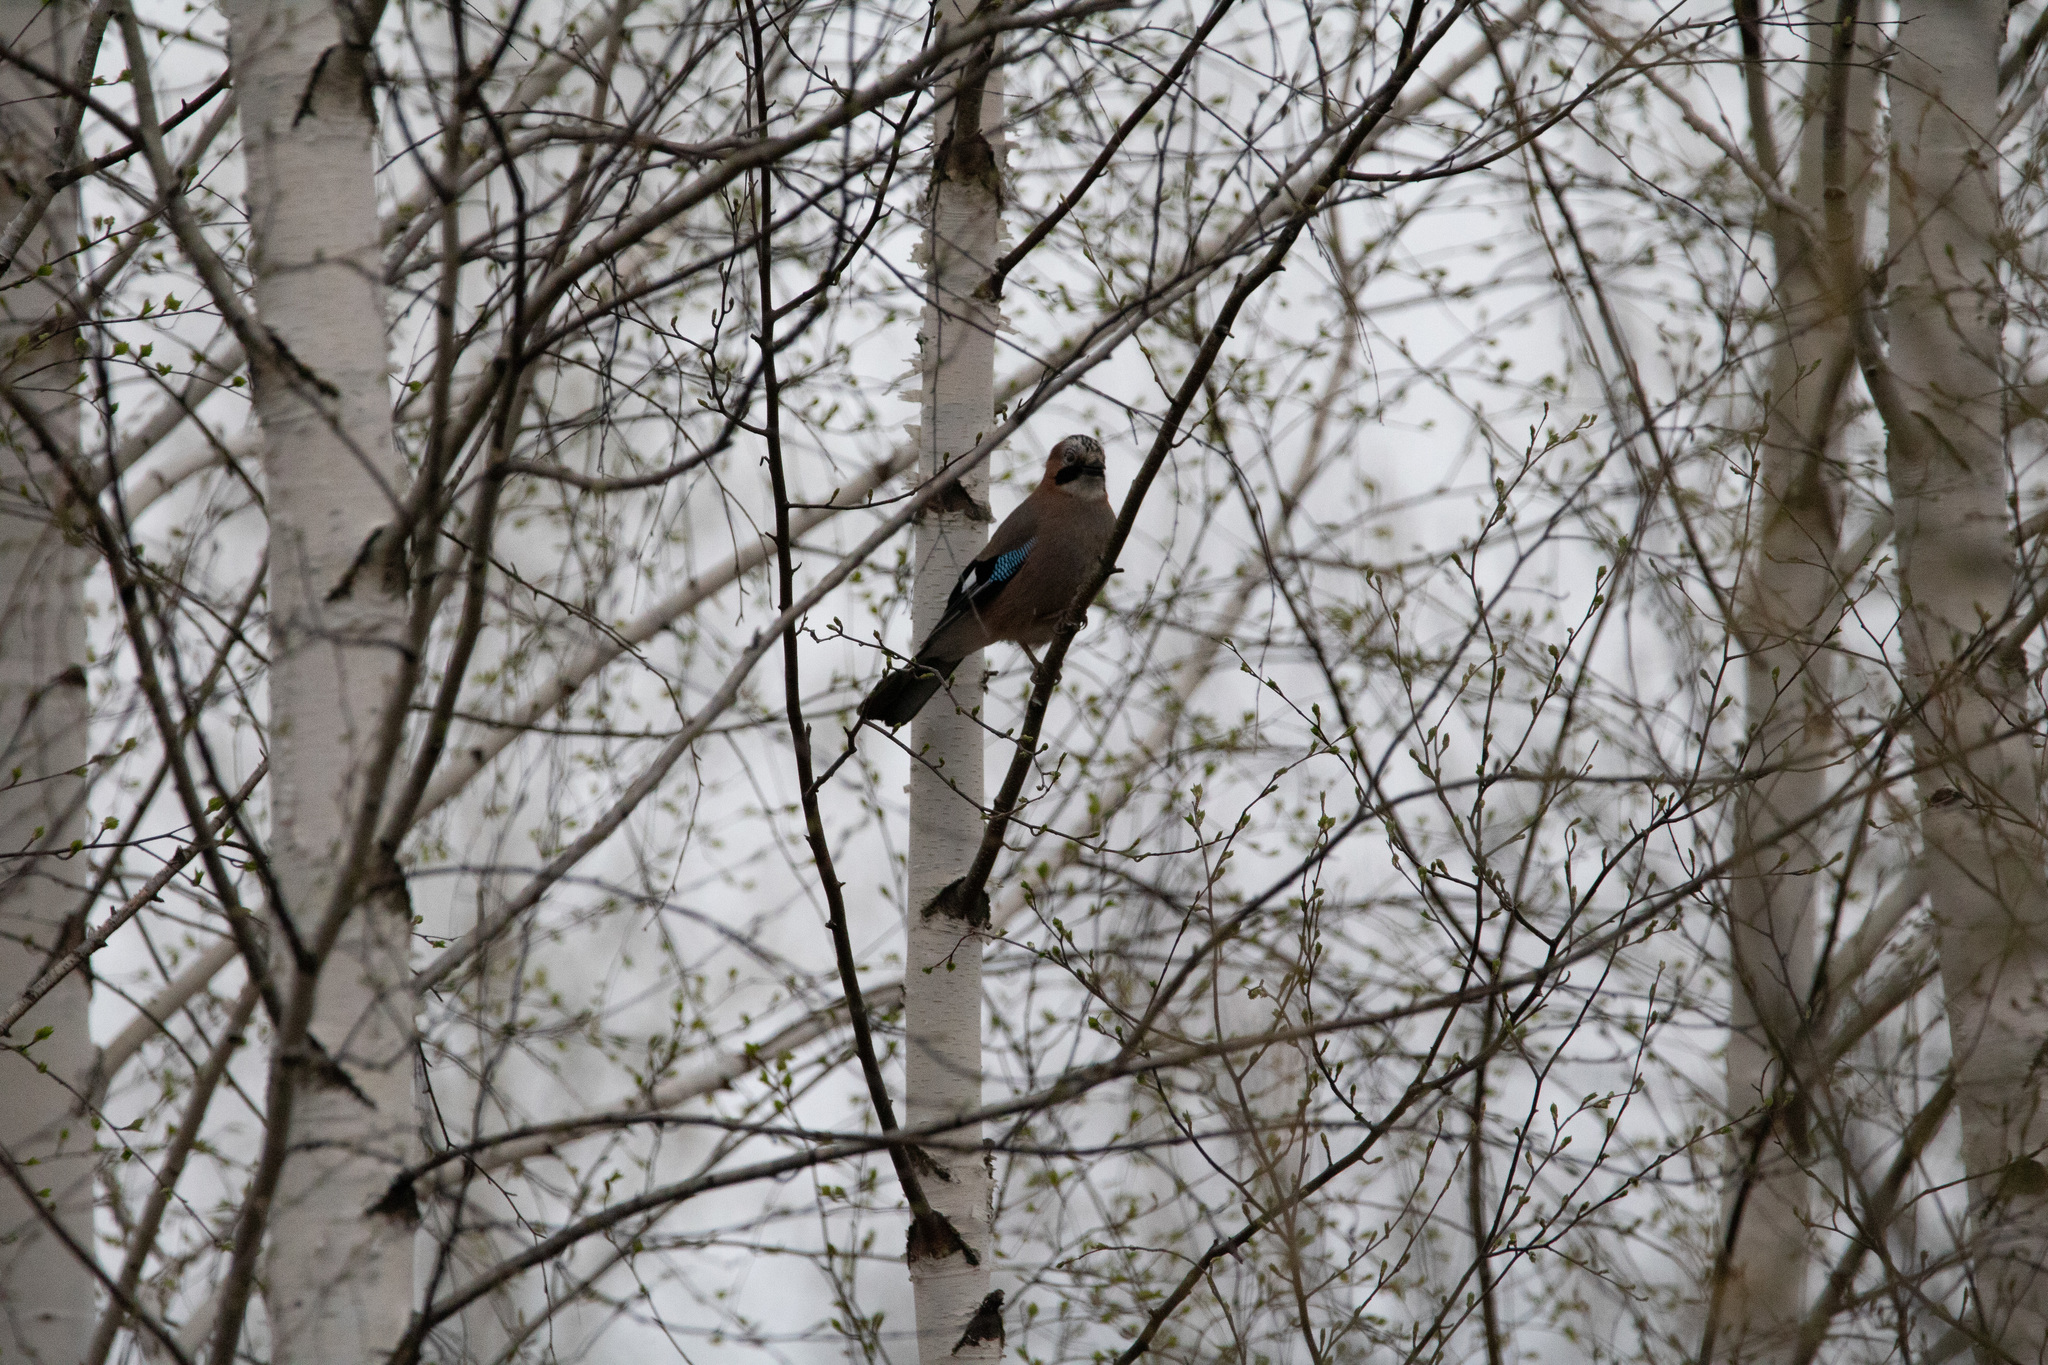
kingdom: Animalia
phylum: Chordata
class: Aves
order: Passeriformes
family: Corvidae
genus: Garrulus
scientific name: Garrulus glandarius
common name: Eurasian jay
